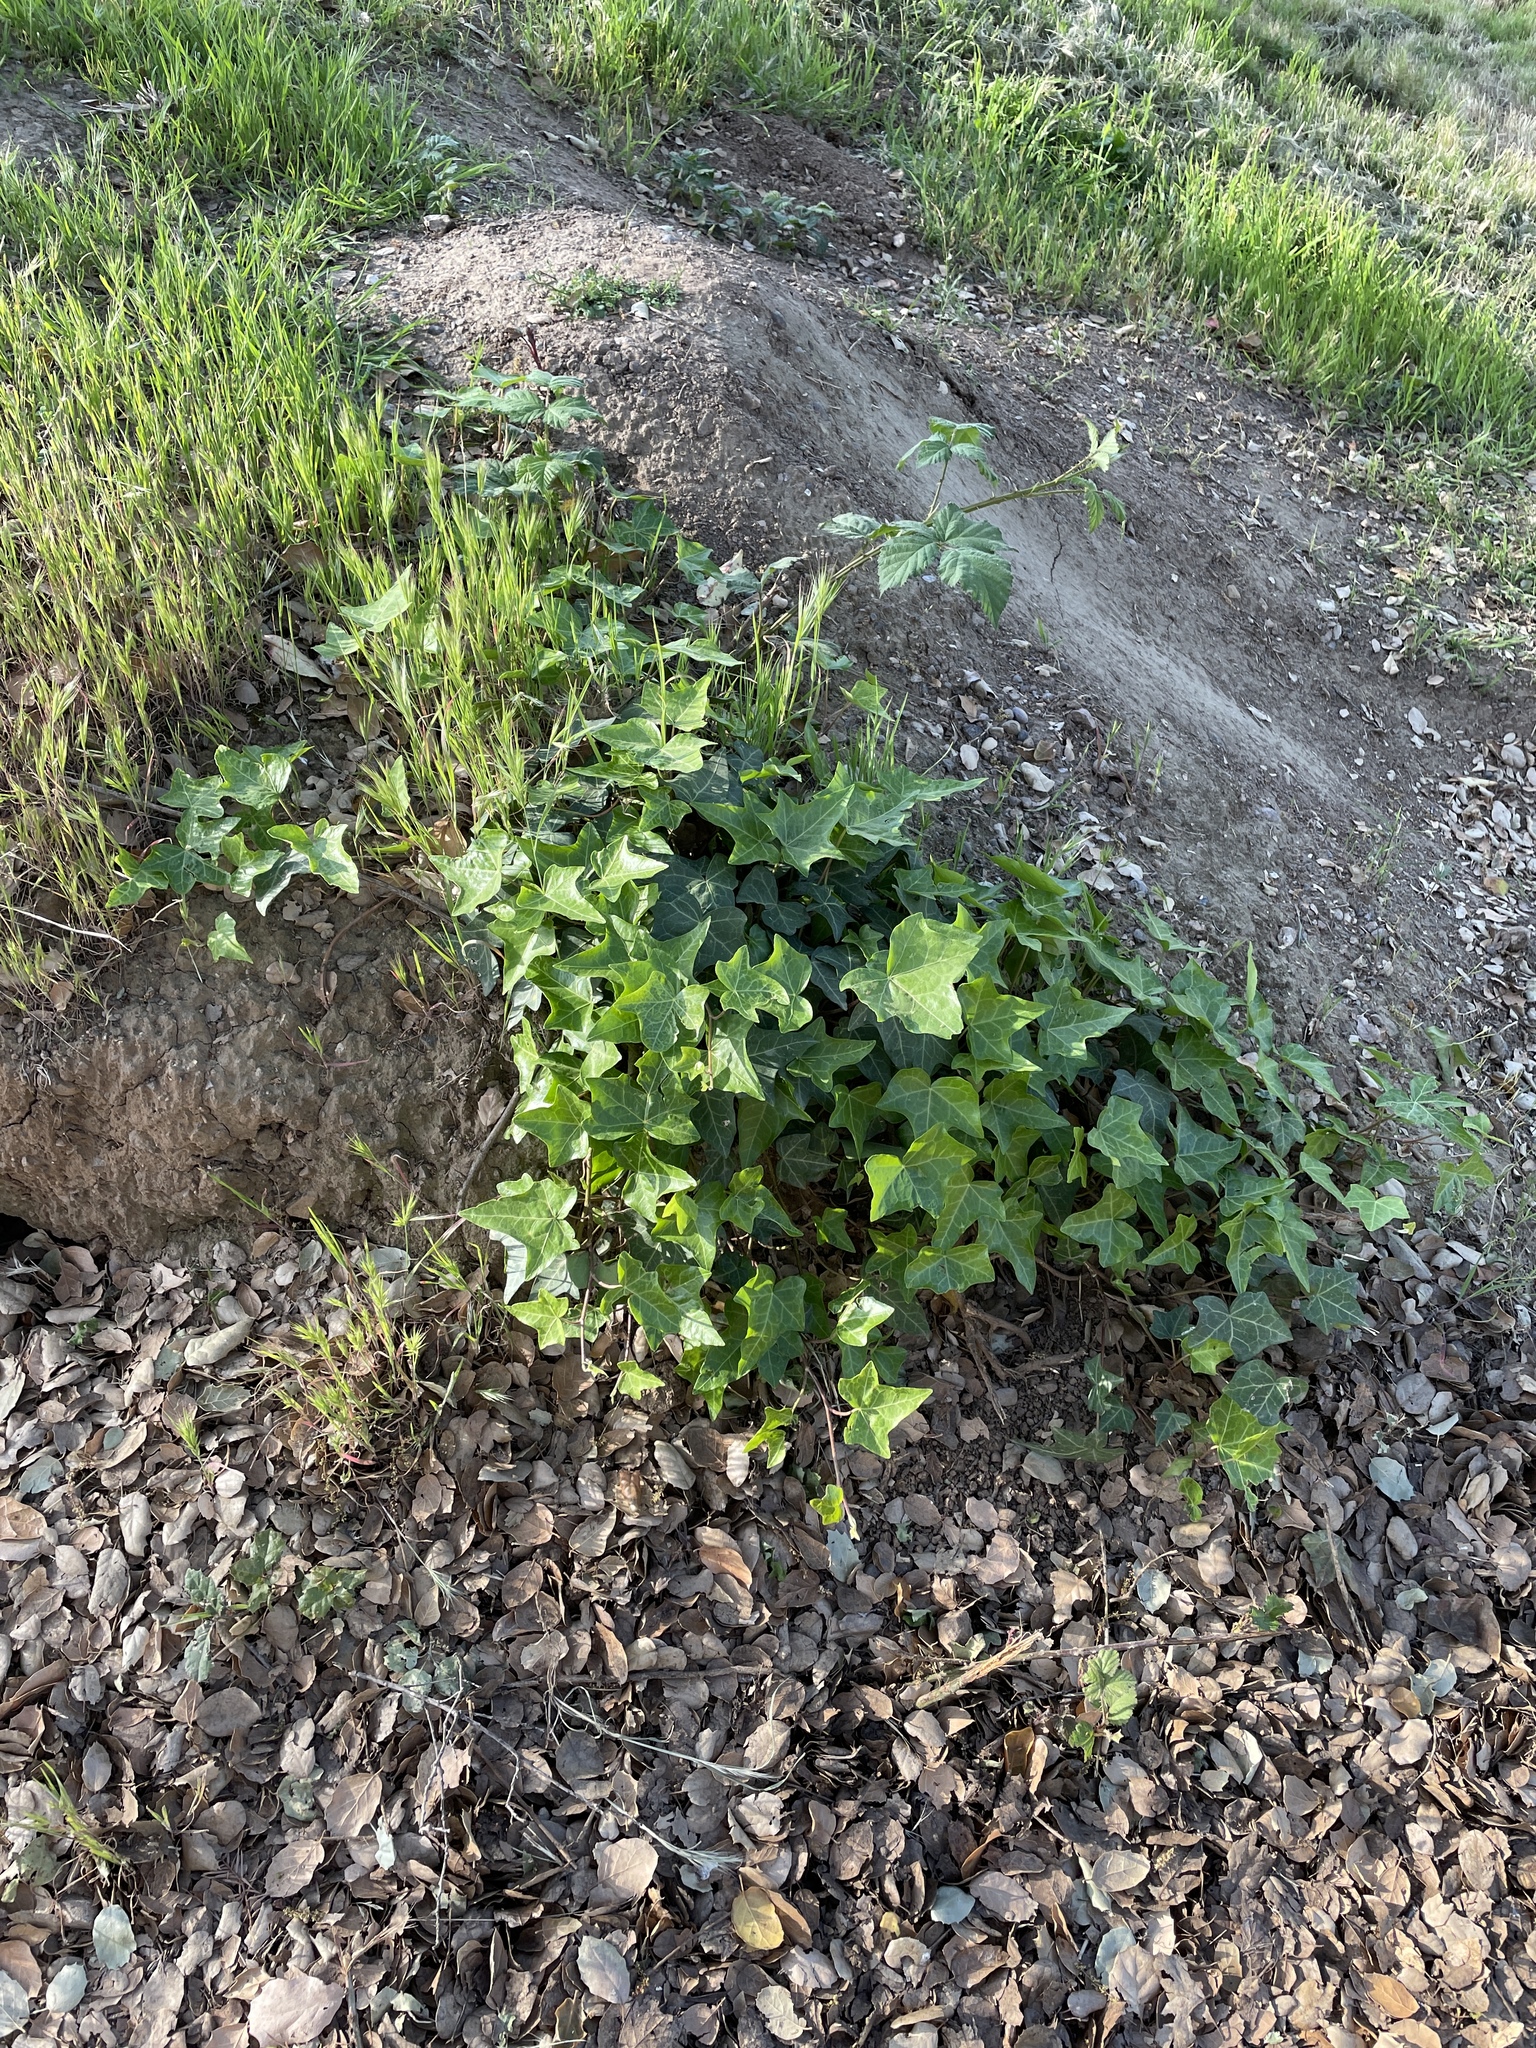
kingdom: Plantae
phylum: Tracheophyta
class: Magnoliopsida
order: Apiales
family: Araliaceae
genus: Hedera
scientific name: Hedera helix
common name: Ivy
